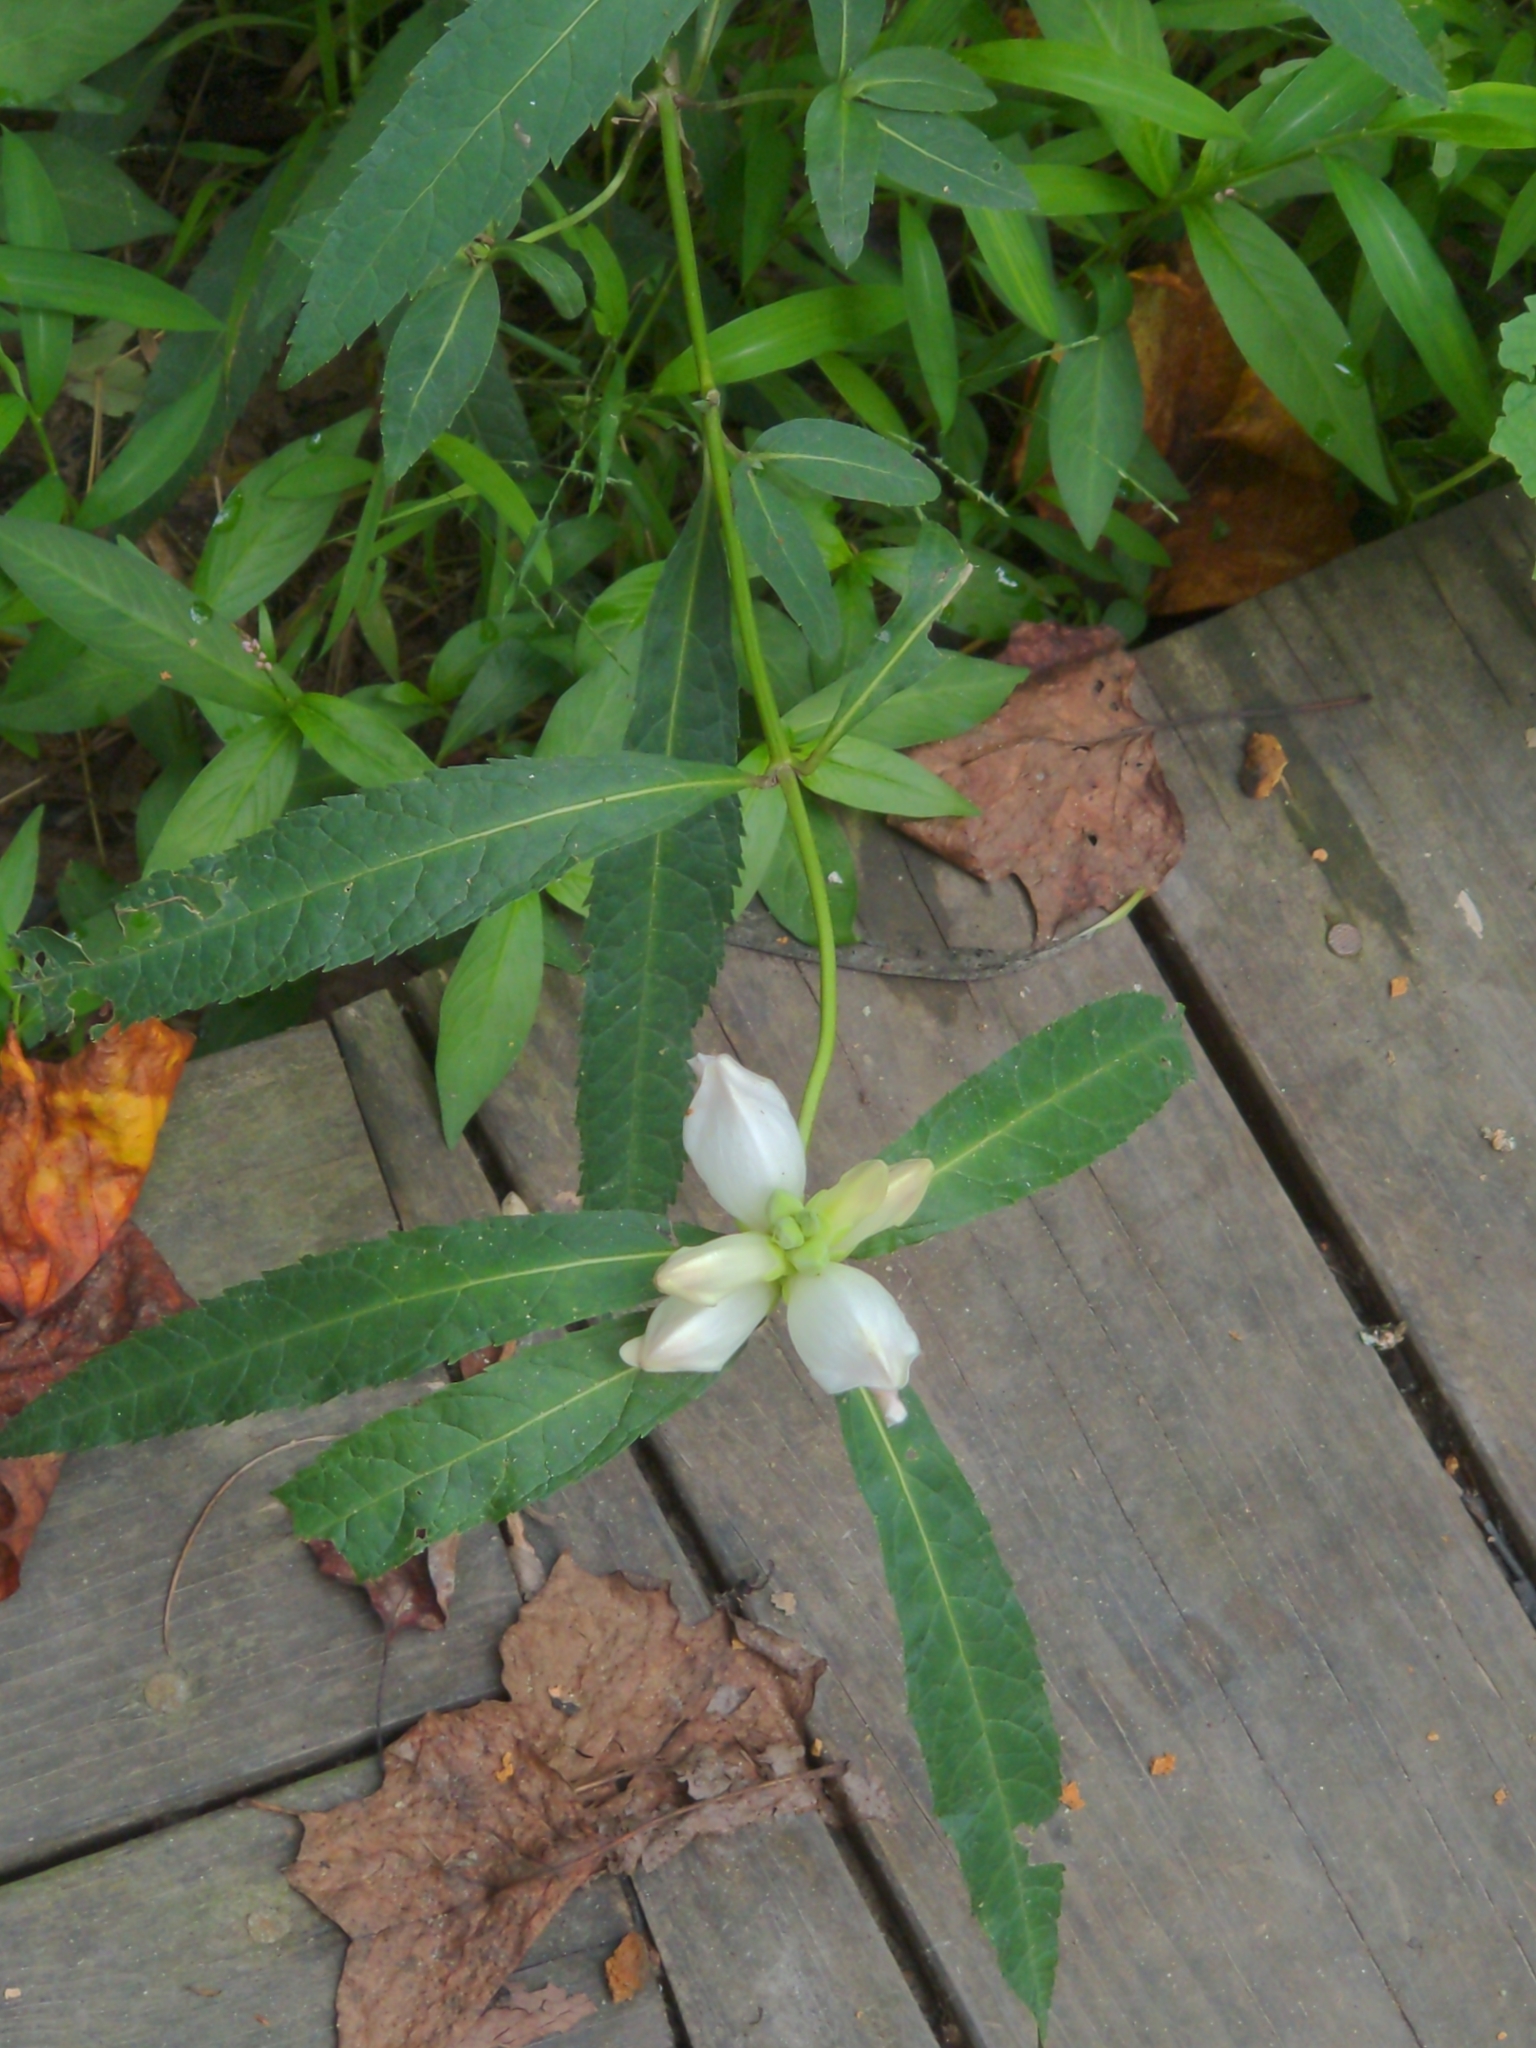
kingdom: Plantae
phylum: Tracheophyta
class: Magnoliopsida
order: Lamiales
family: Plantaginaceae
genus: Chelone
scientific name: Chelone glabra
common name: Snakehead
